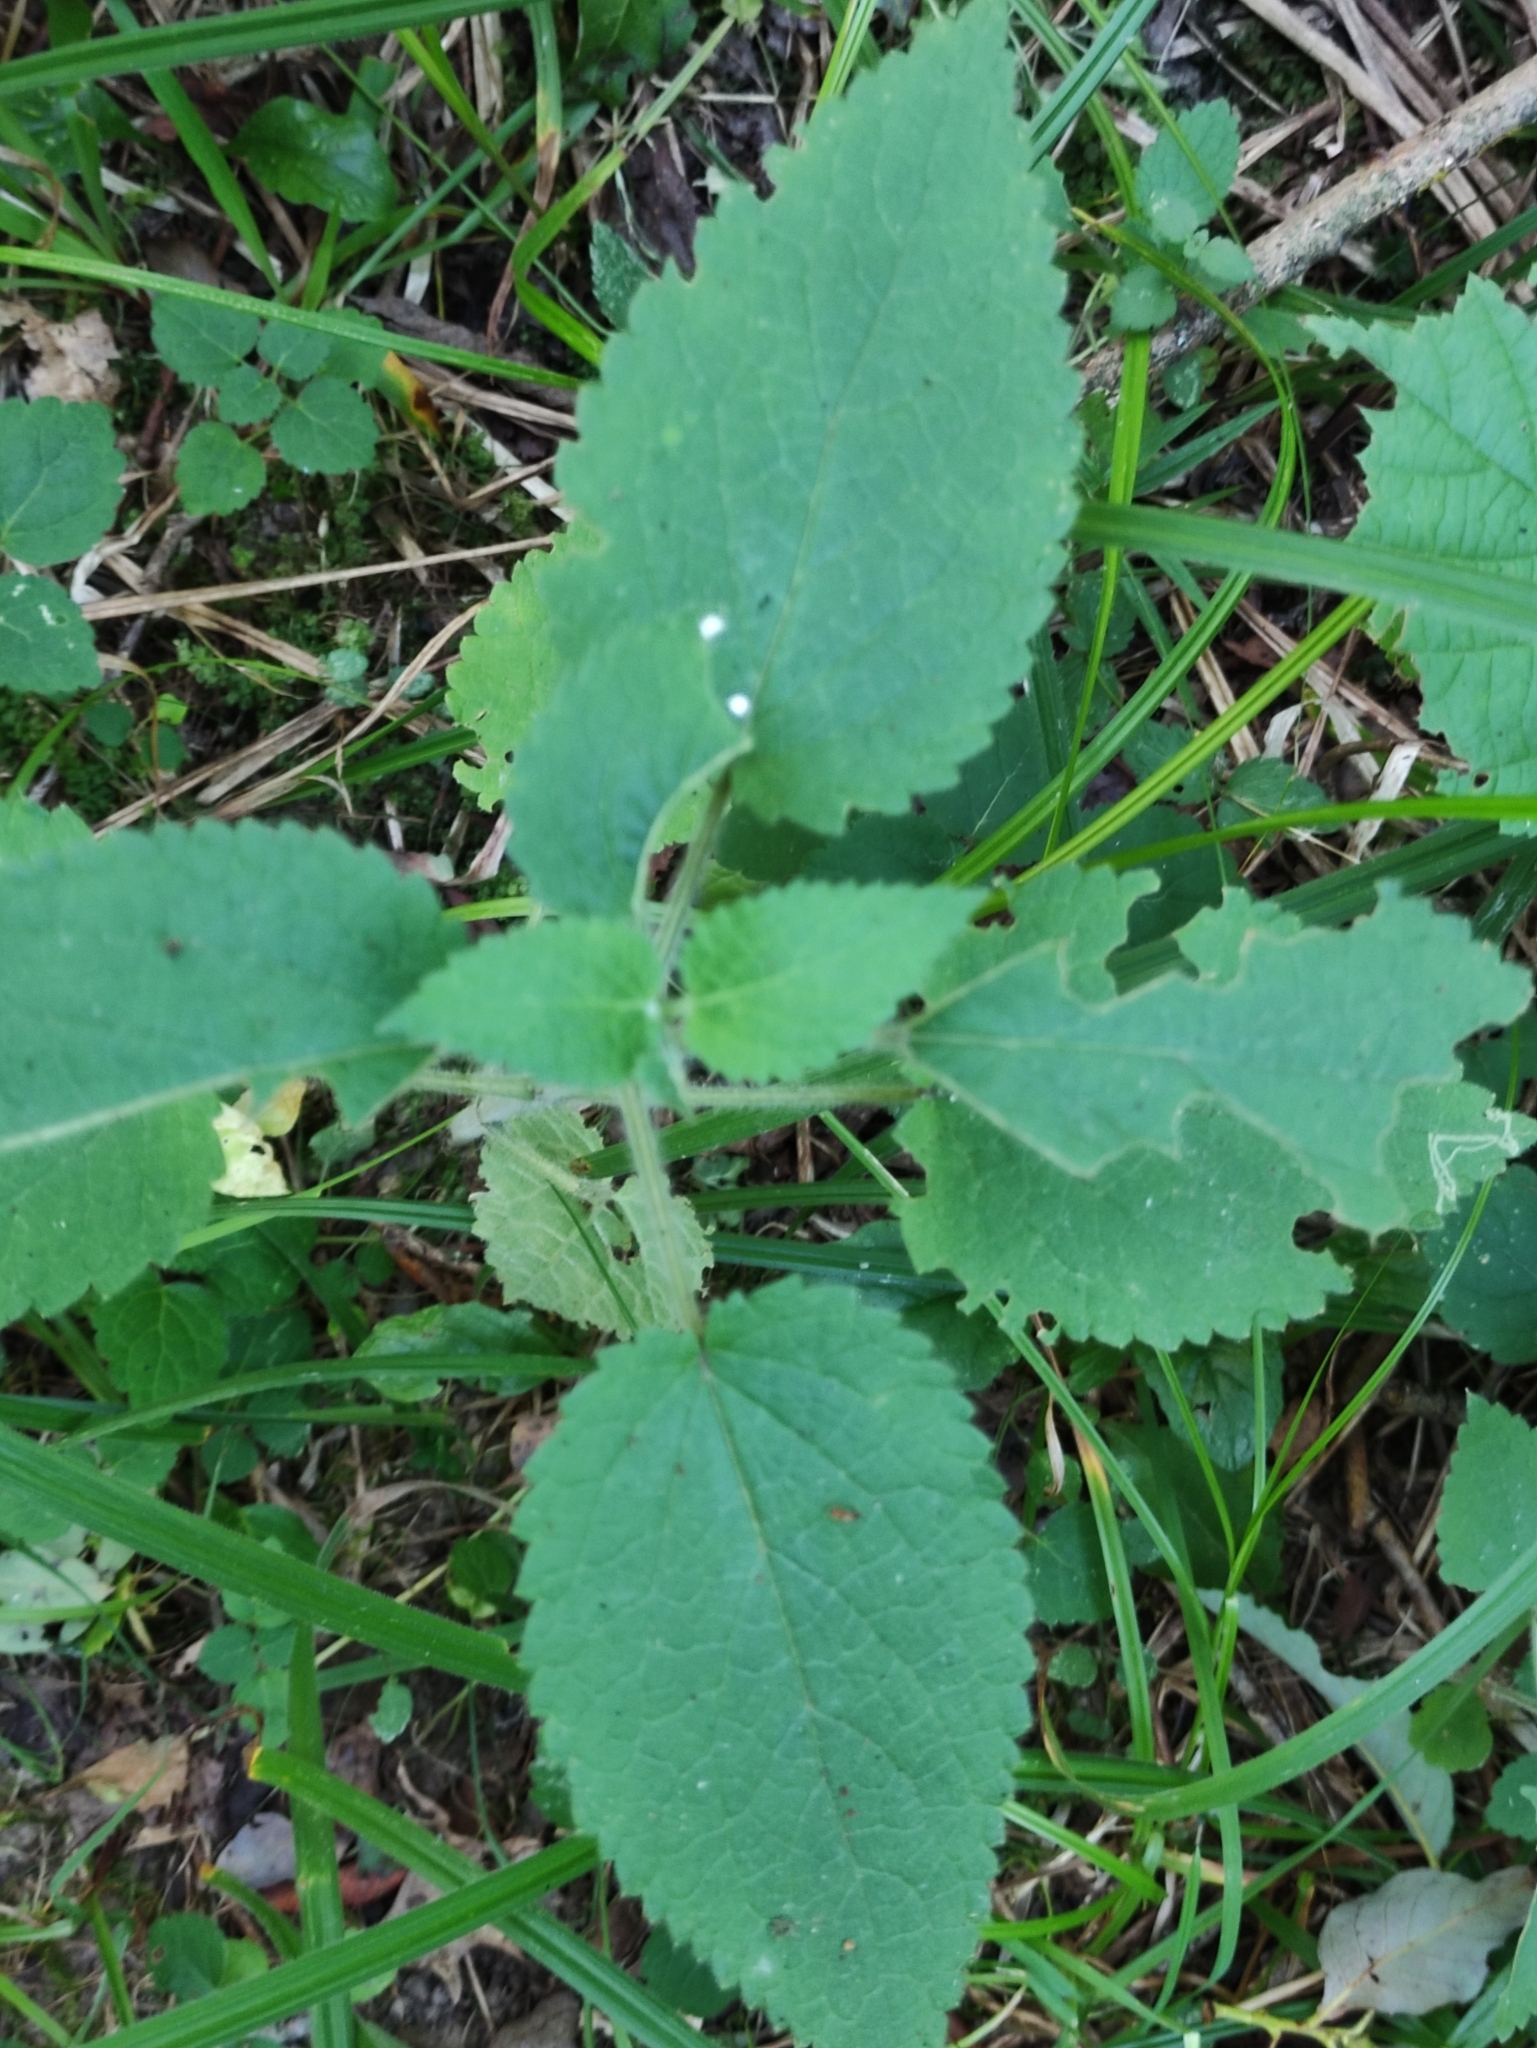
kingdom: Plantae
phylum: Tracheophyta
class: Magnoliopsida
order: Lamiales
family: Lamiaceae
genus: Stachys
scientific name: Stachys sylvatica
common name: Hedge woundwort
